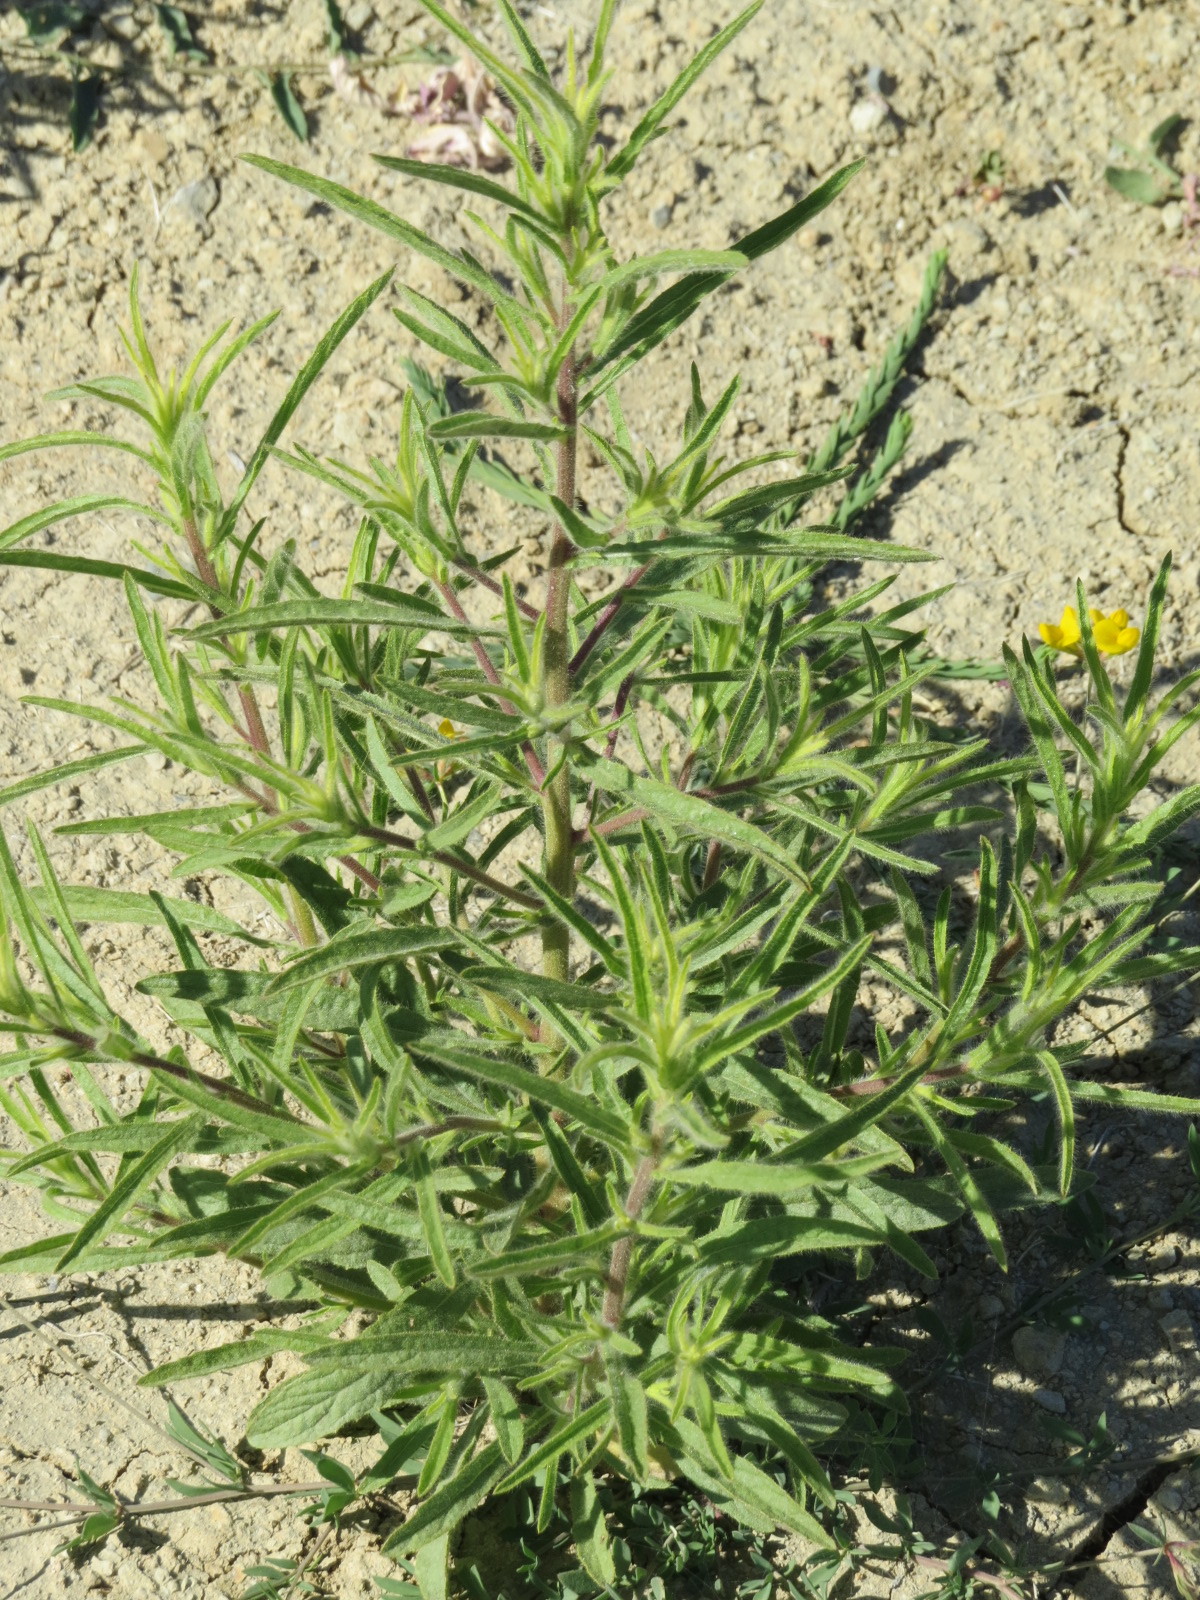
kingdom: Plantae
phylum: Tracheophyta
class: Magnoliopsida
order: Asterales
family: Asteraceae
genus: Dittrichia
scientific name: Dittrichia graveolens
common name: Stinking fleabane
